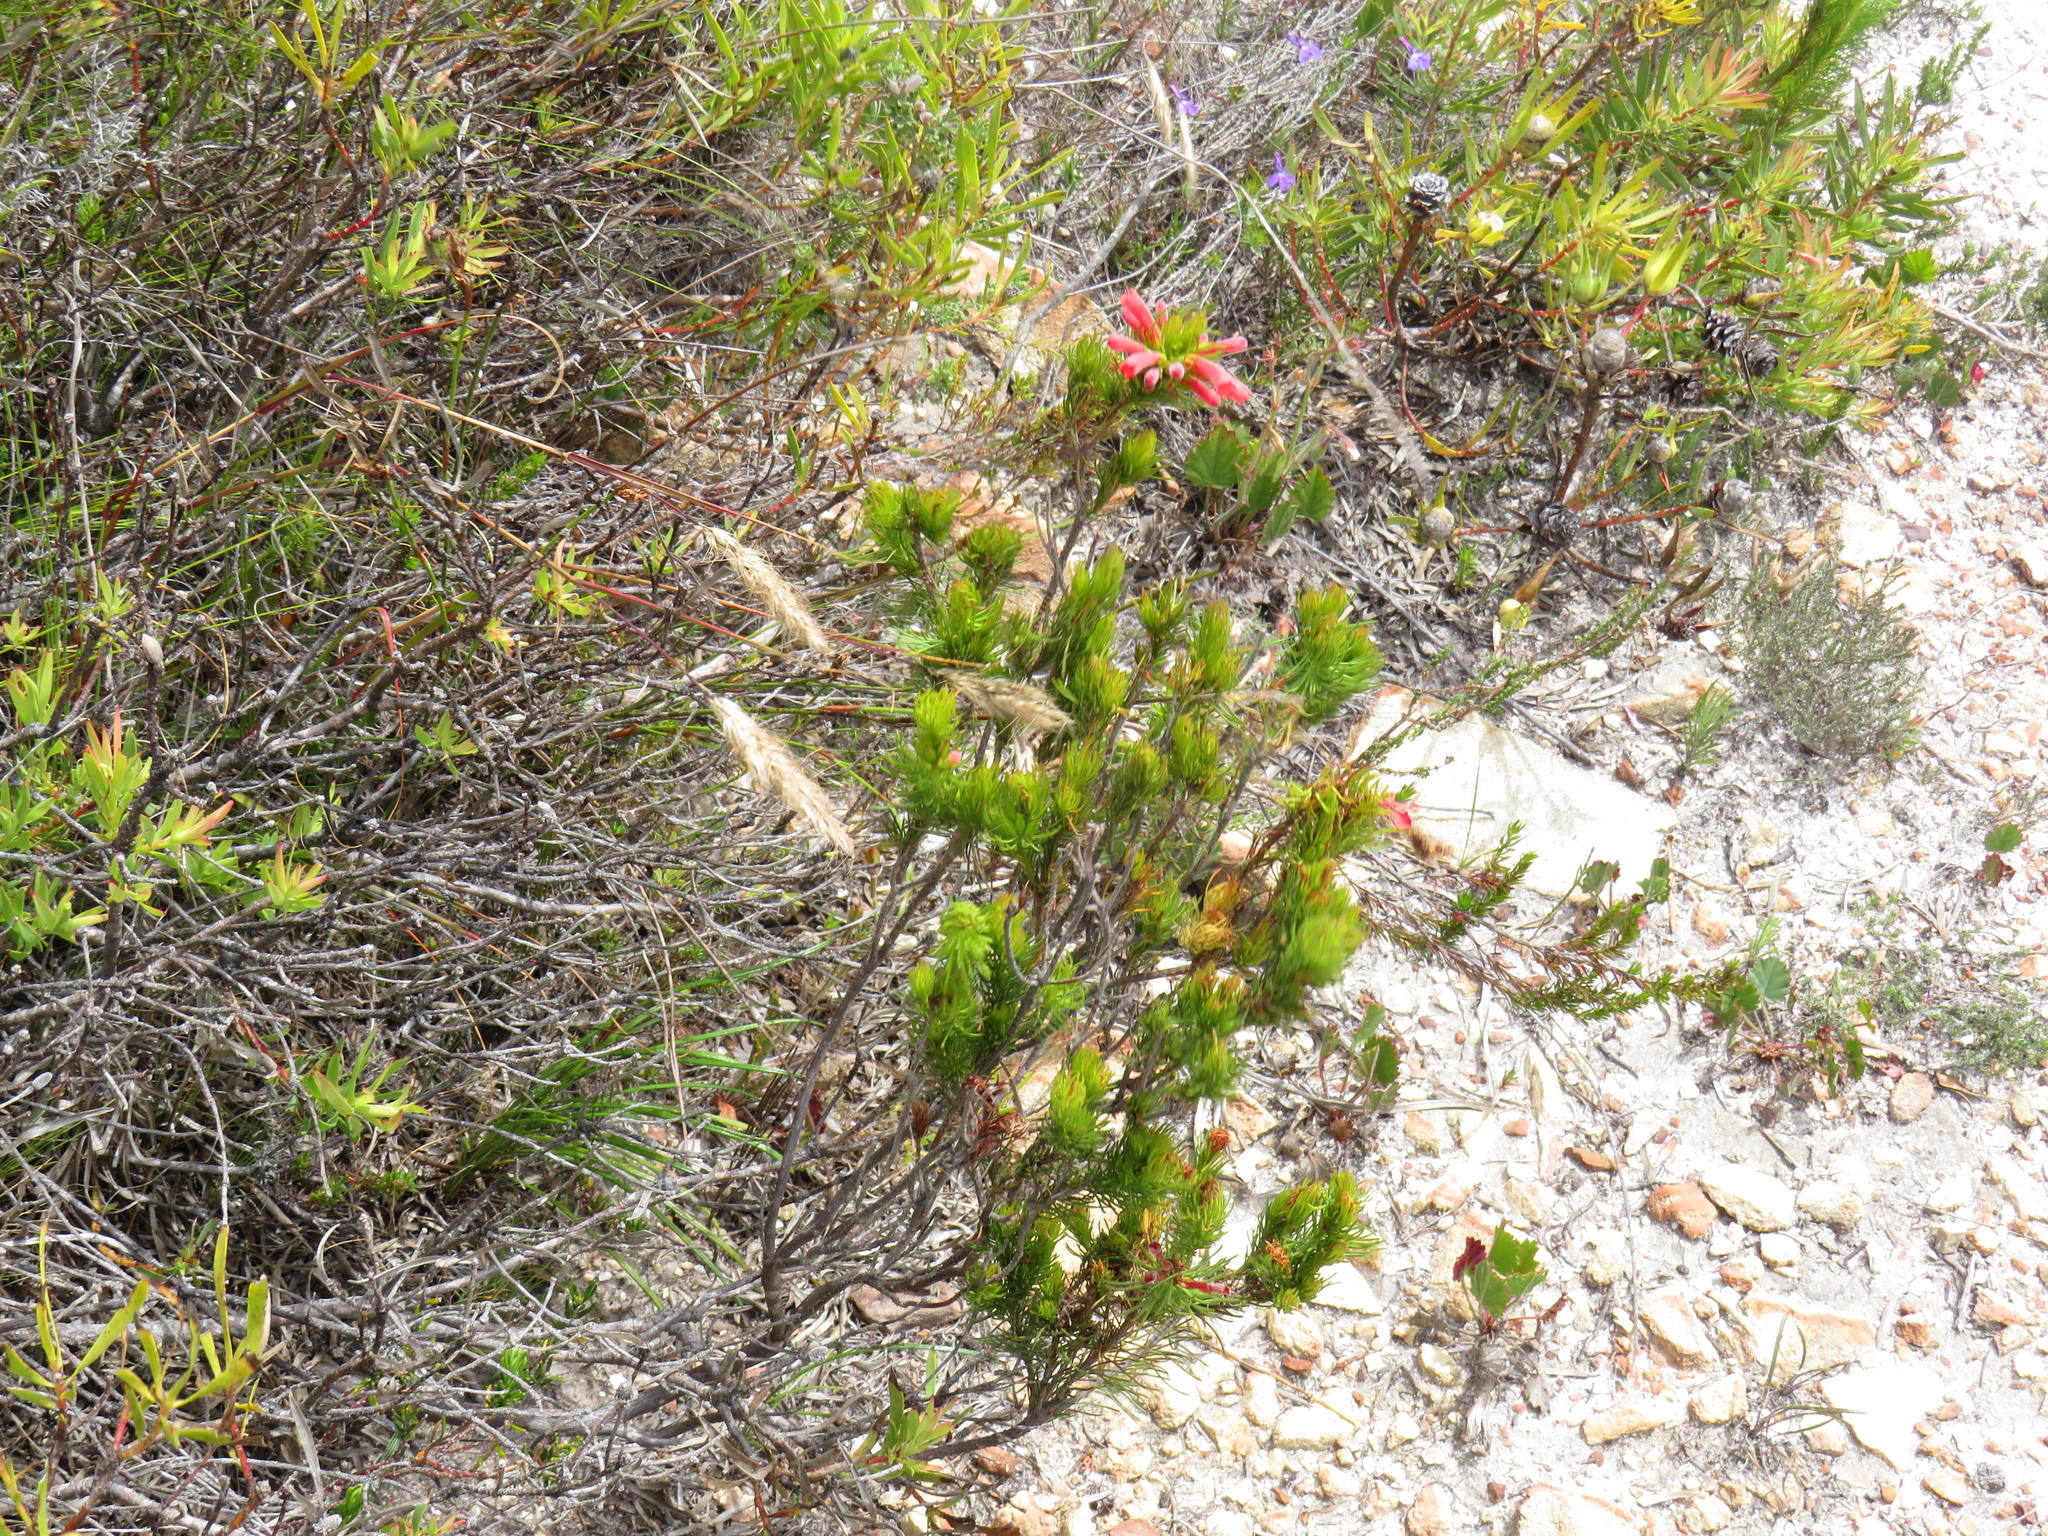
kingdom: Plantae
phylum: Tracheophyta
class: Magnoliopsida
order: Ericales
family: Ericaceae
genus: Erica
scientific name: Erica viscaria
